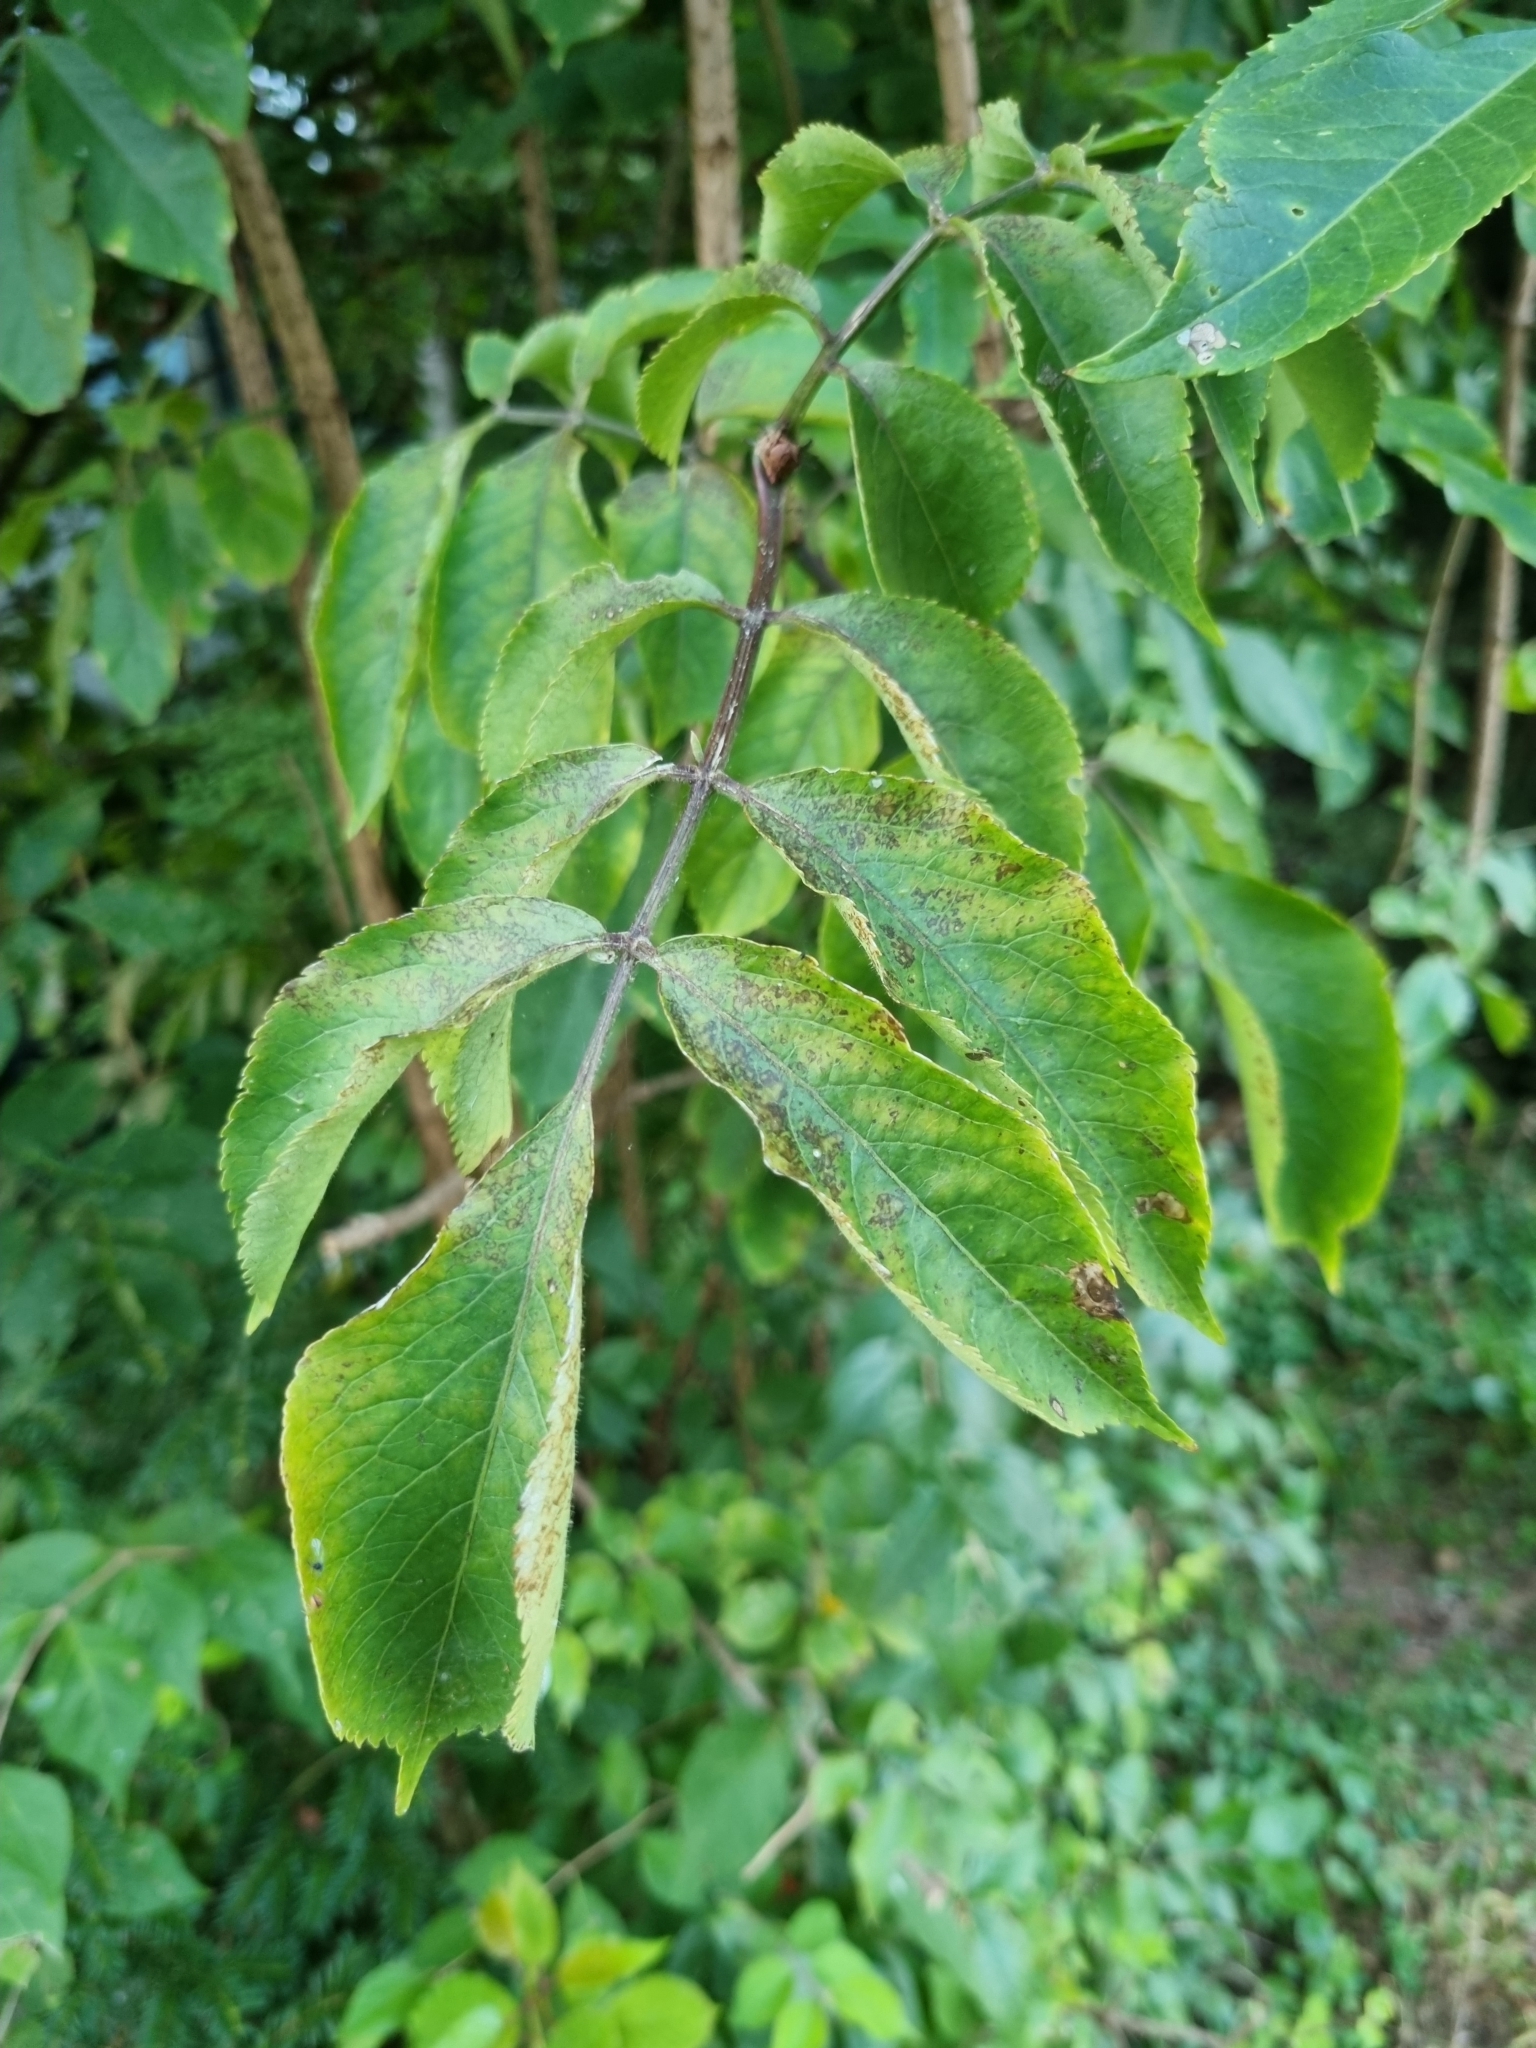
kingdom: Plantae
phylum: Tracheophyta
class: Magnoliopsida
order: Dipsacales
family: Viburnaceae
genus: Sambucus
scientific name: Sambucus nigra
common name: Elder
